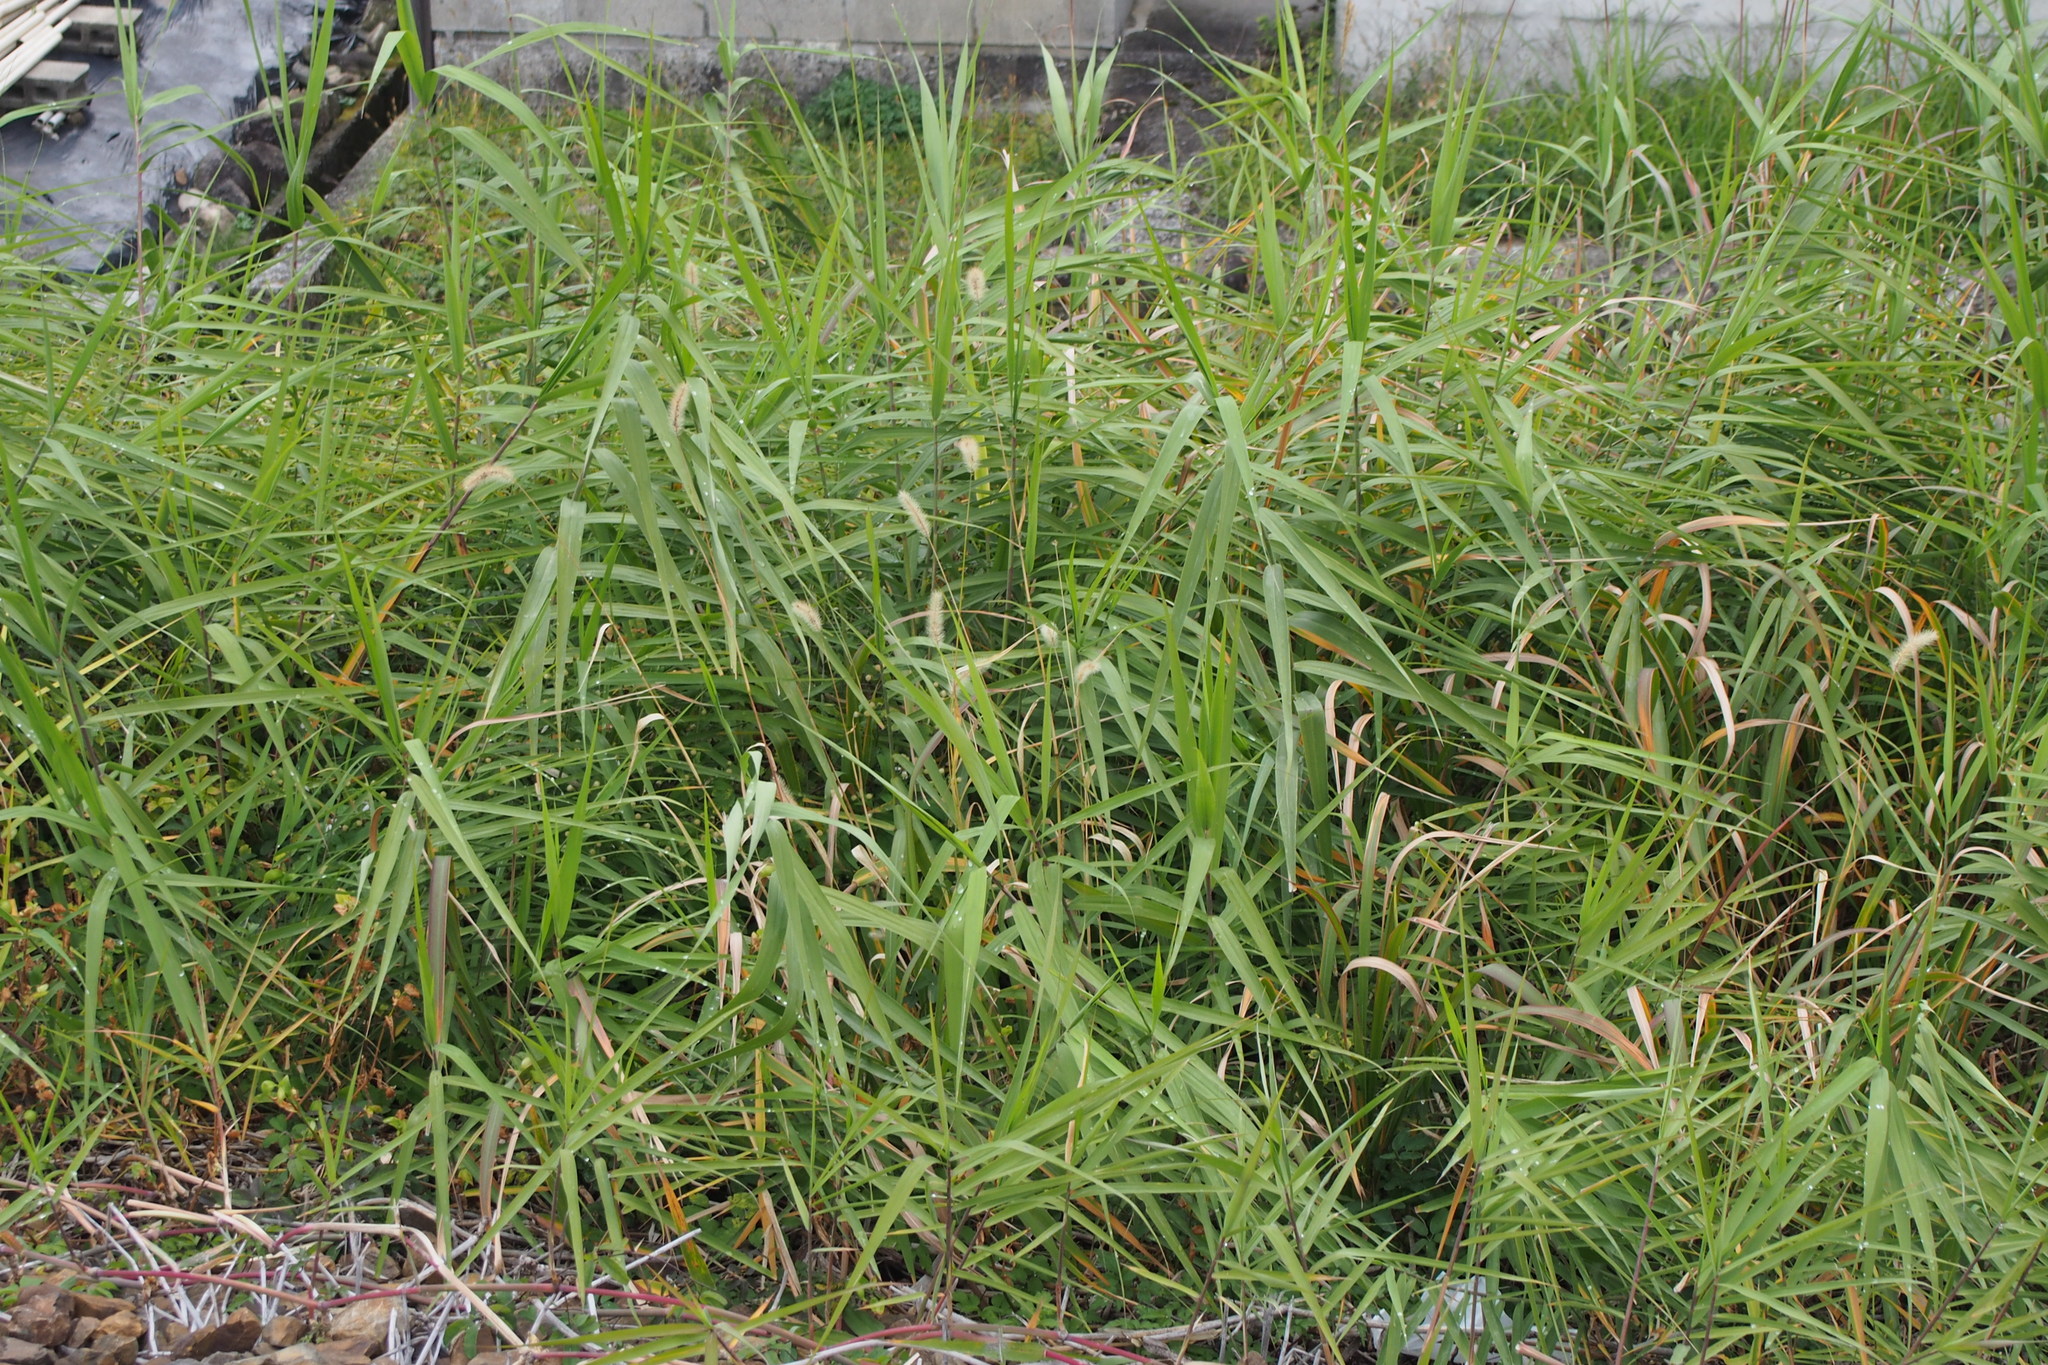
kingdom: Plantae
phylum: Tracheophyta
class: Liliopsida
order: Poales
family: Poaceae
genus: Phragmites
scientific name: Phragmites japonicus
